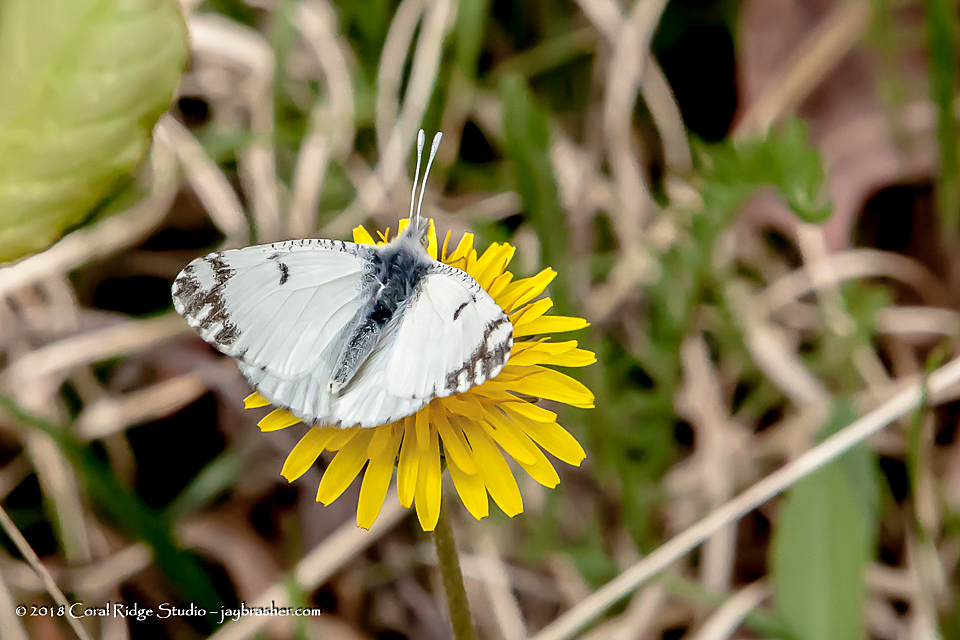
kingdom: Animalia
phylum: Arthropoda
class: Insecta
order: Lepidoptera
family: Pieridae
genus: Euchloe
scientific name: Euchloe ausonides
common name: Creamy marblewing
